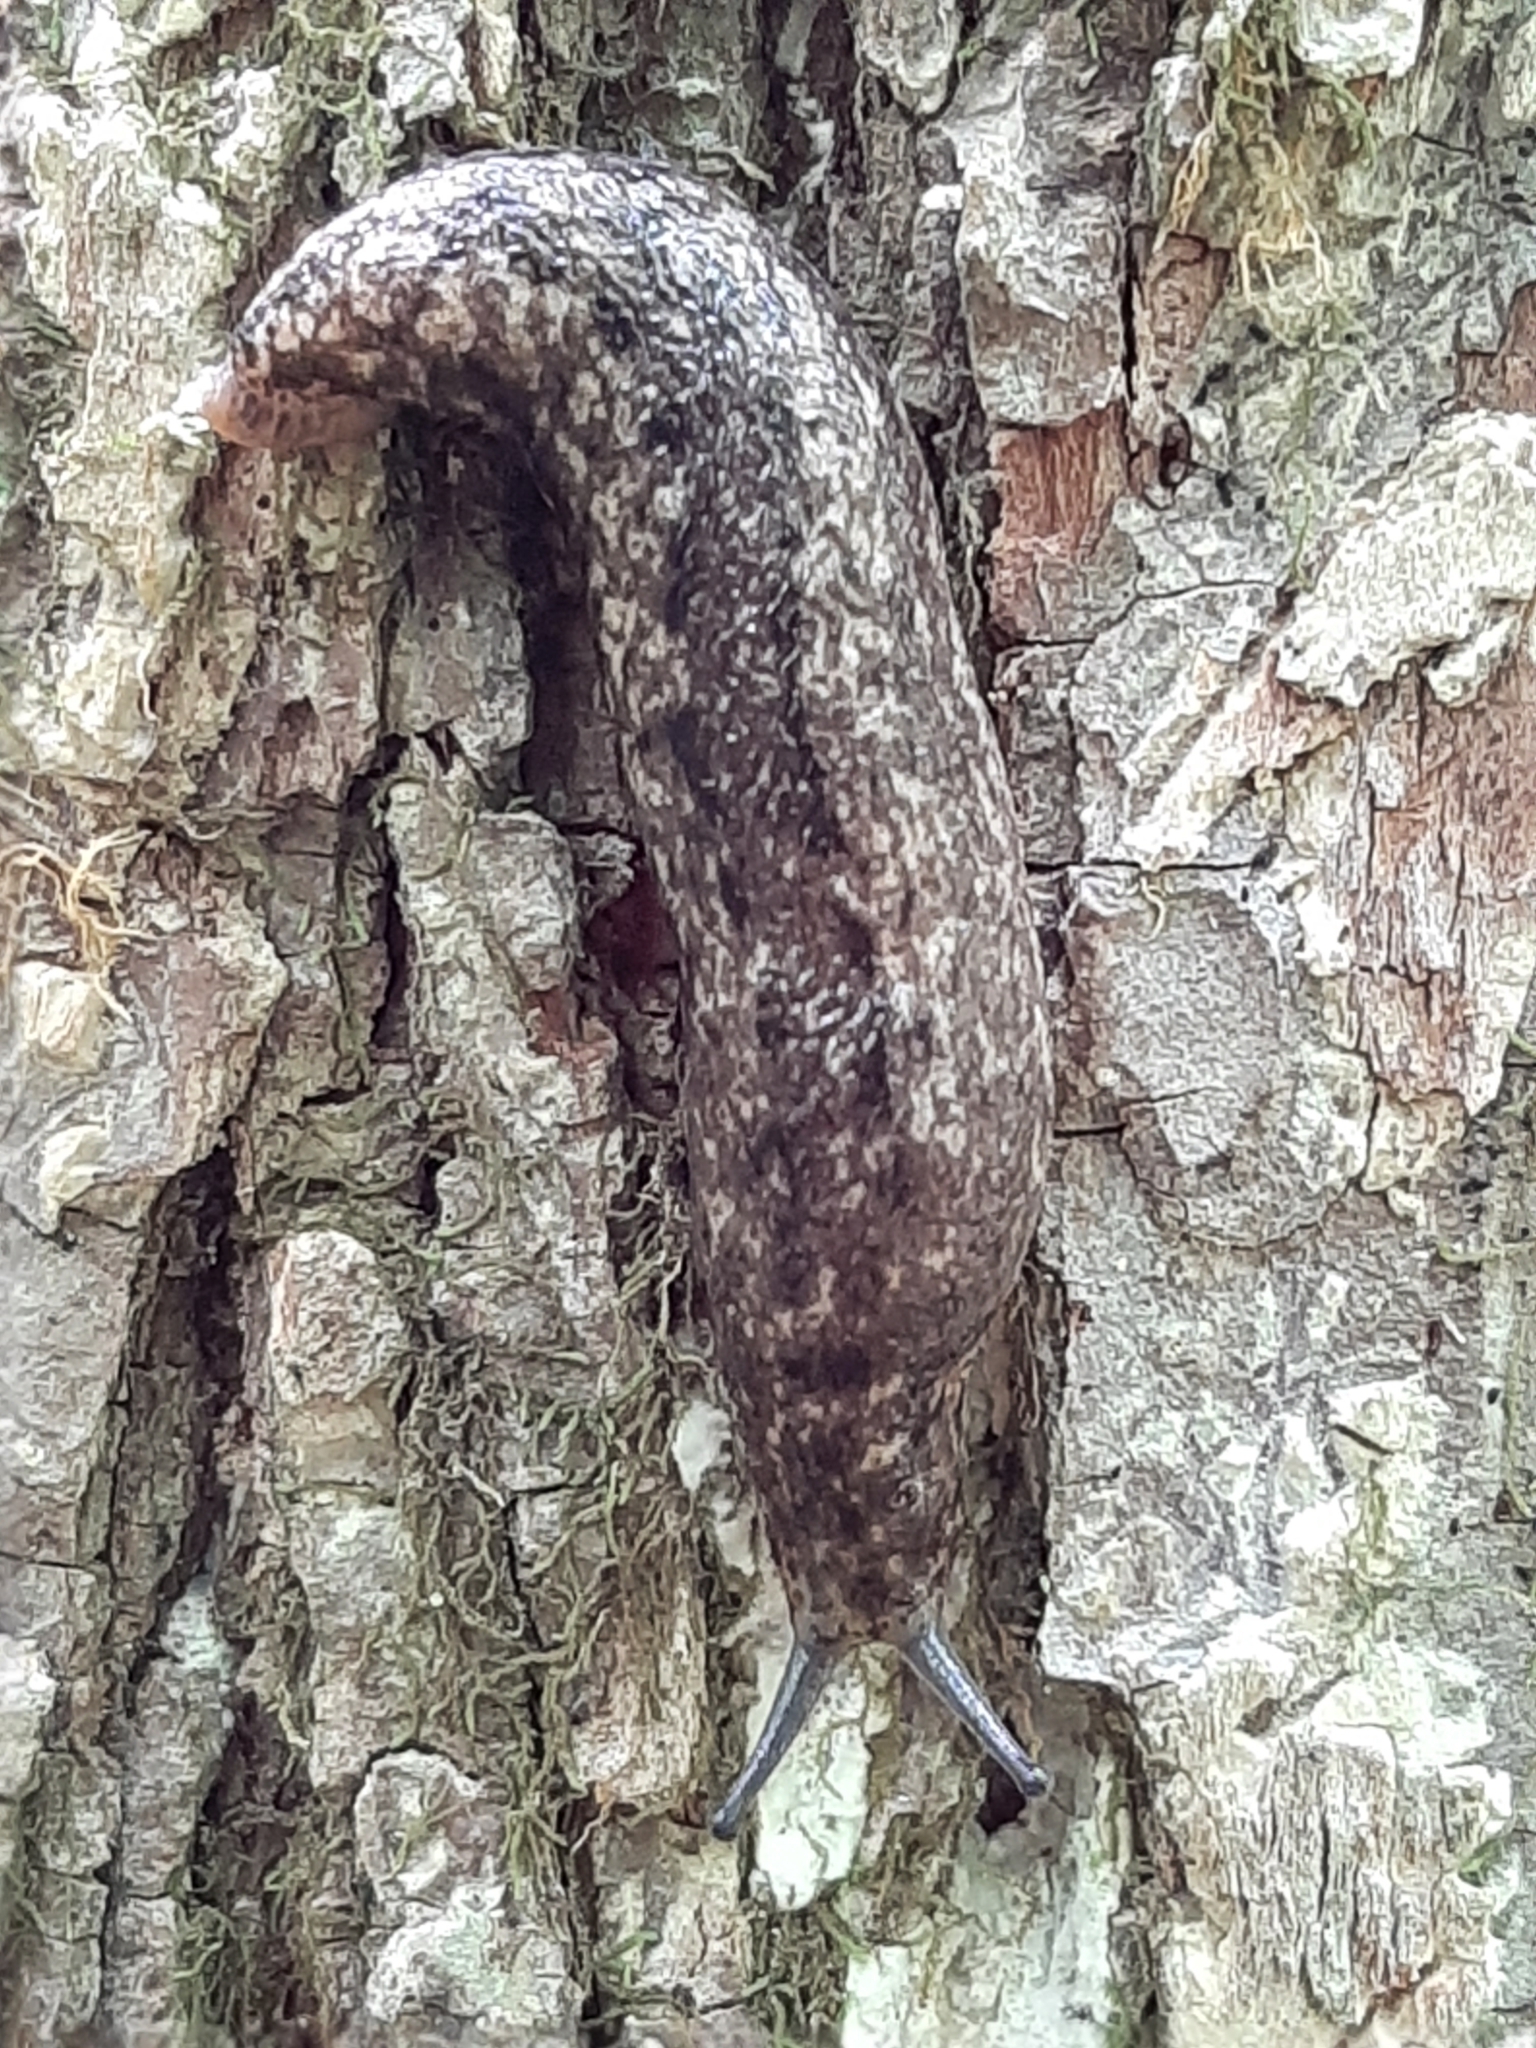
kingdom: Animalia
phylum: Mollusca
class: Gastropoda
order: Stylommatophora
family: Philomycidae
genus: Philomycus
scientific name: Philomycus carolinianus
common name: Carolina mantleslug
